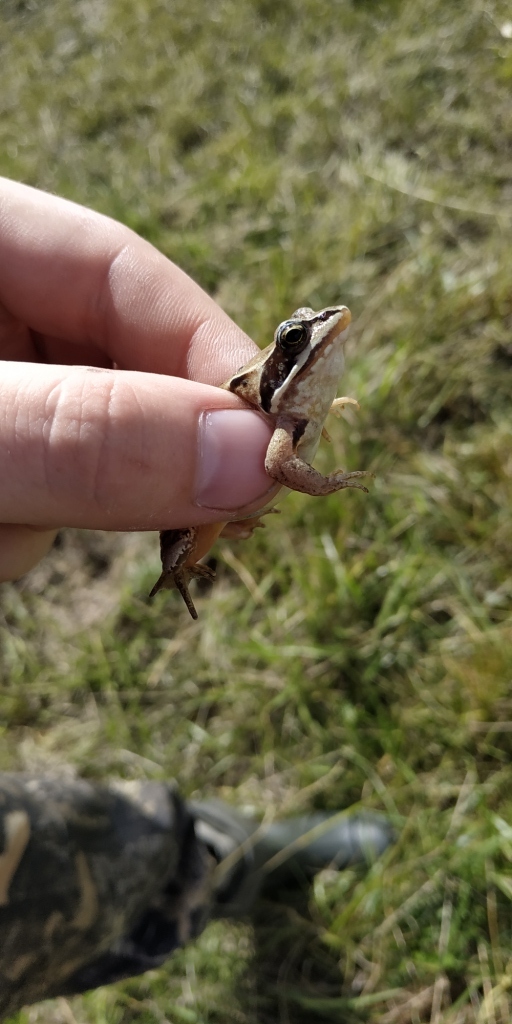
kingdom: Animalia
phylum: Chordata
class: Amphibia
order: Anura
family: Ranidae
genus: Rana
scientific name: Rana arvalis
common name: Moor frog
